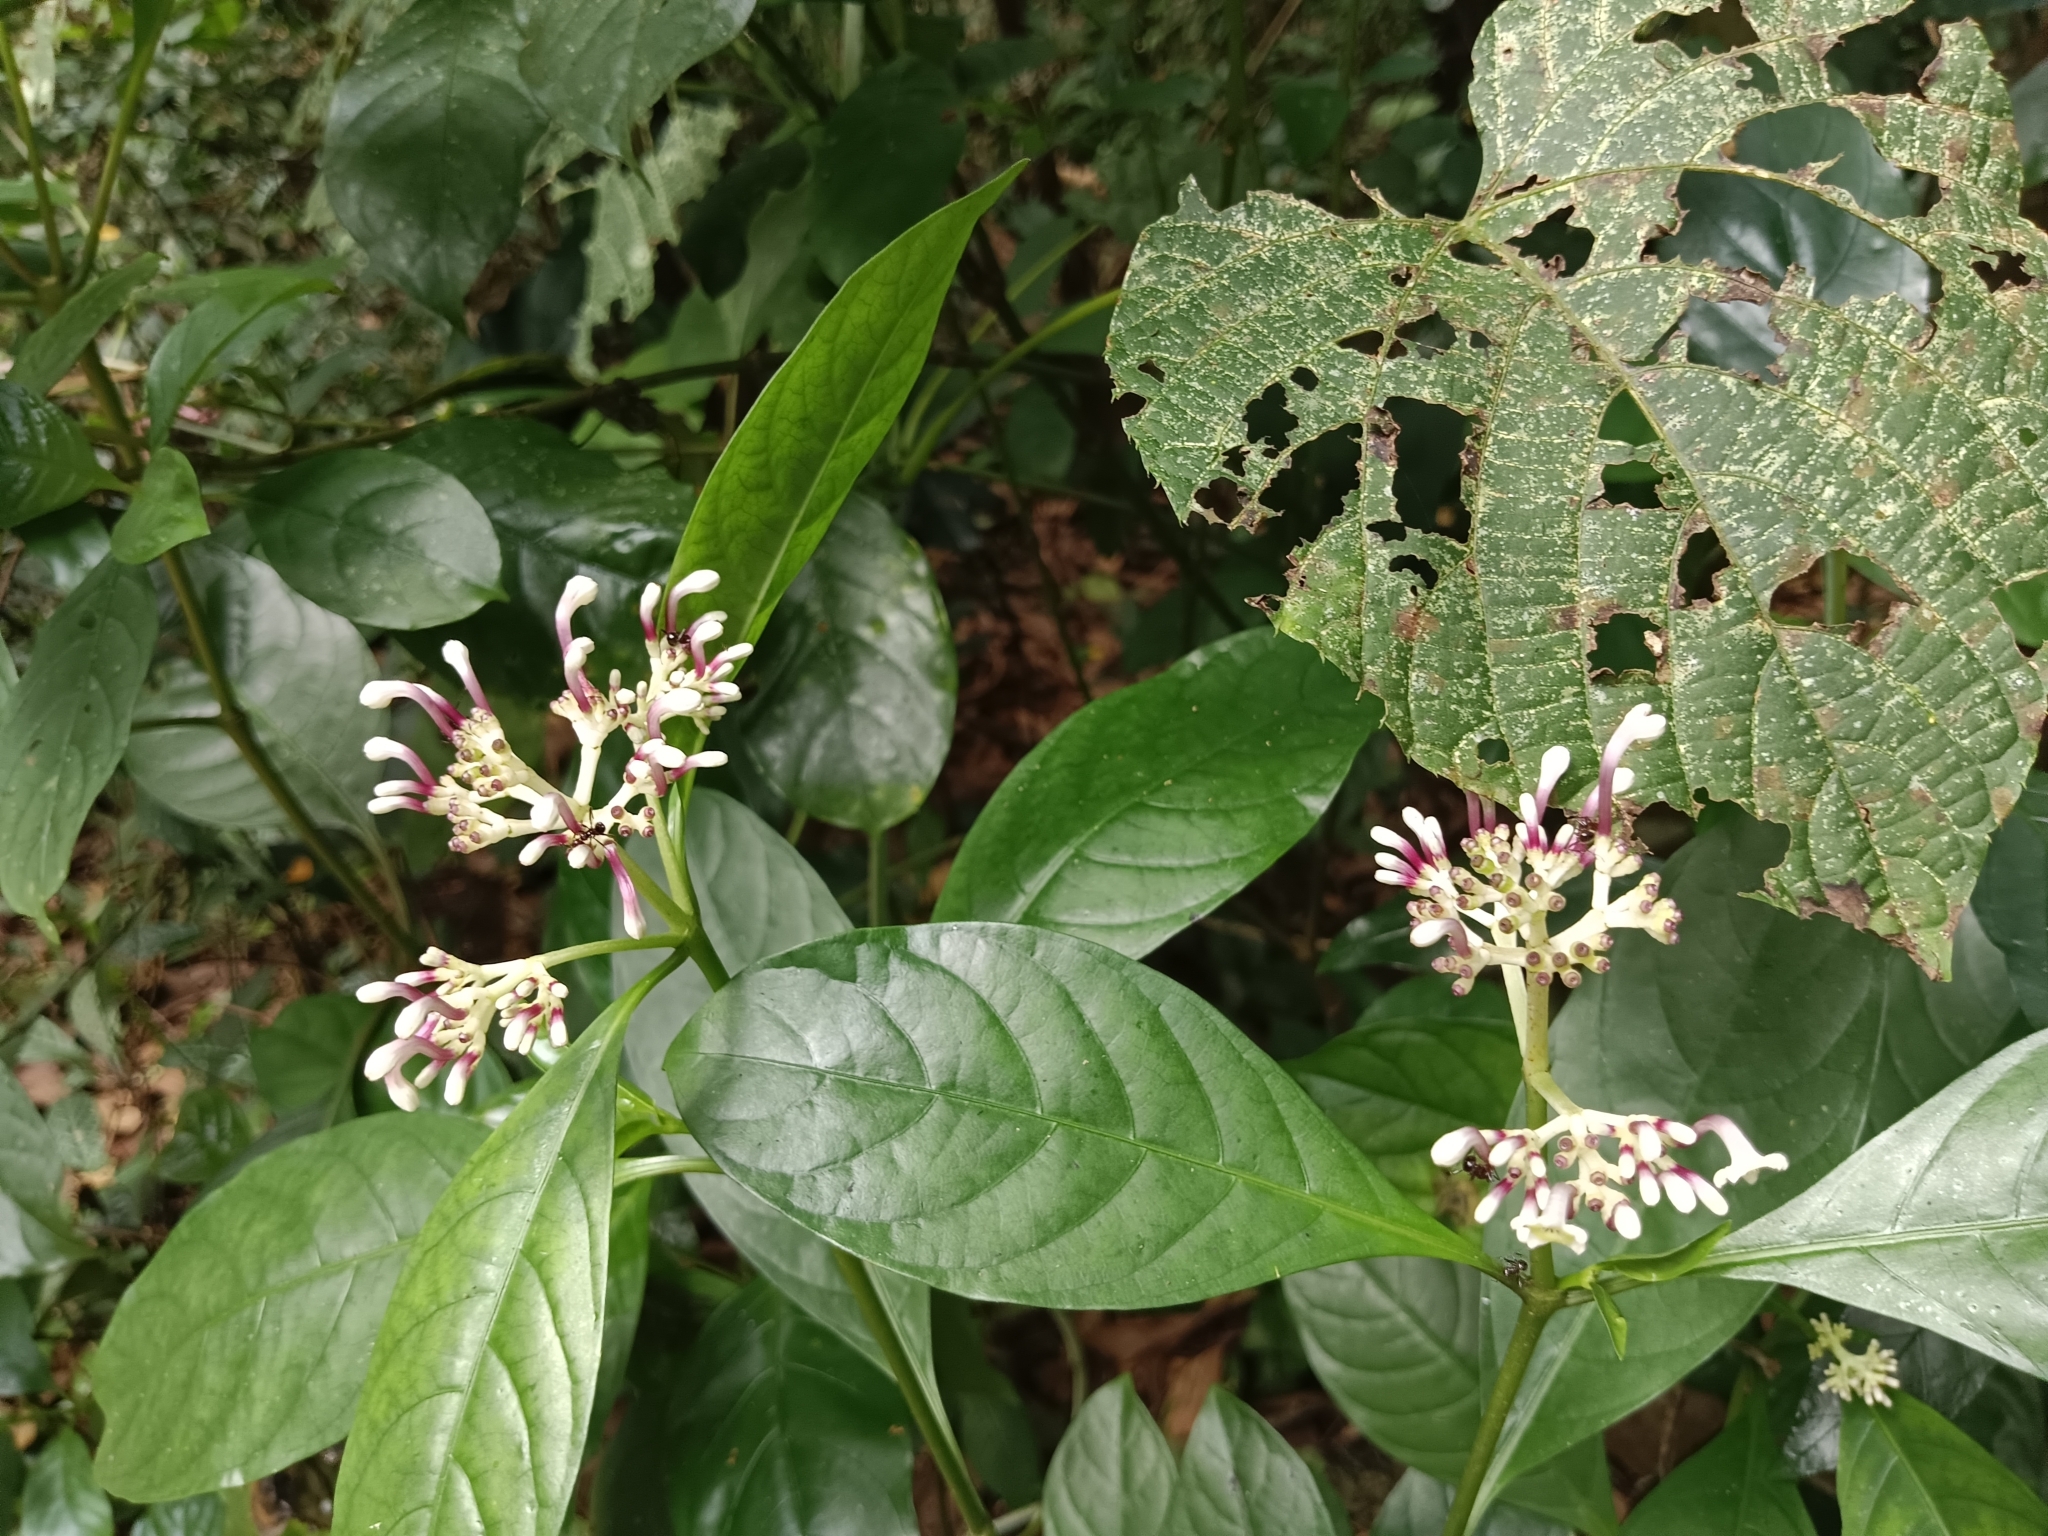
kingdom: Plantae
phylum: Tracheophyta
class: Magnoliopsida
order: Gentianales
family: Rubiaceae
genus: Chassalia
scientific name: Chassalia curviflora
